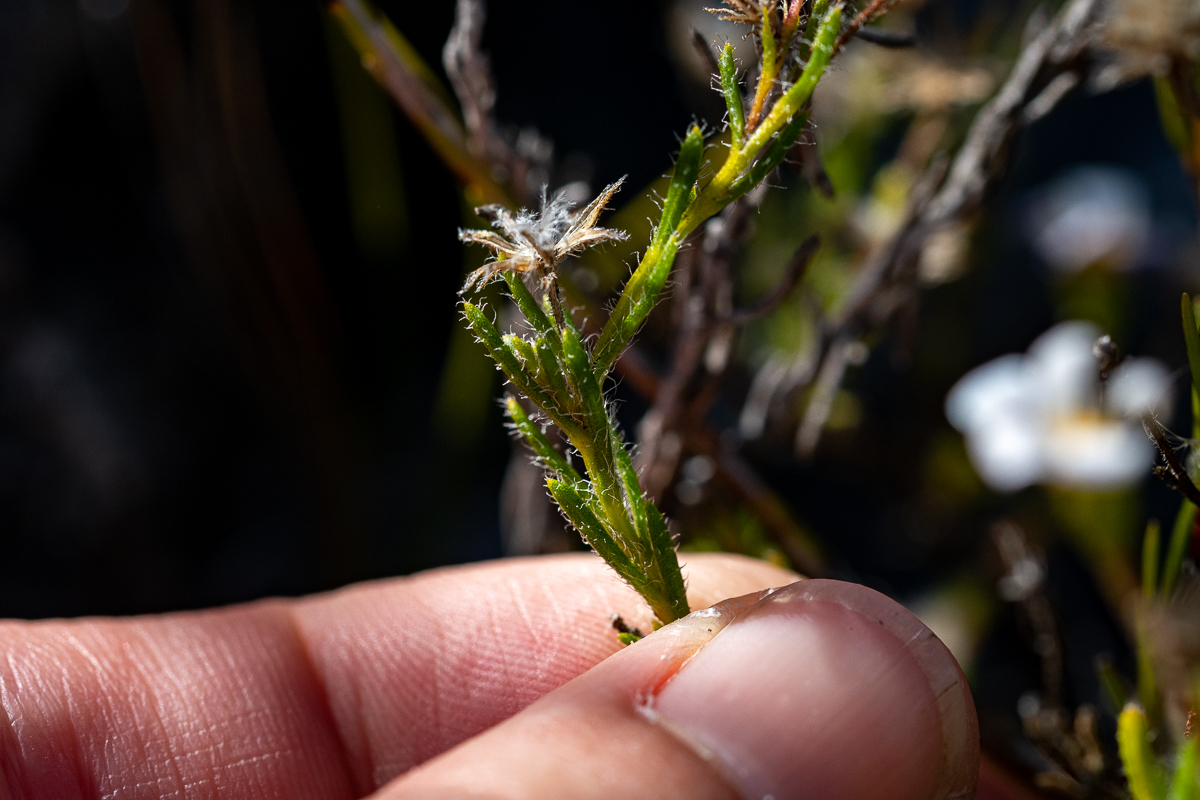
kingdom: Plantae
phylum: Tracheophyta
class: Magnoliopsida
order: Asterales
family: Asteraceae
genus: Zyrphelis
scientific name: Zyrphelis foliosa
